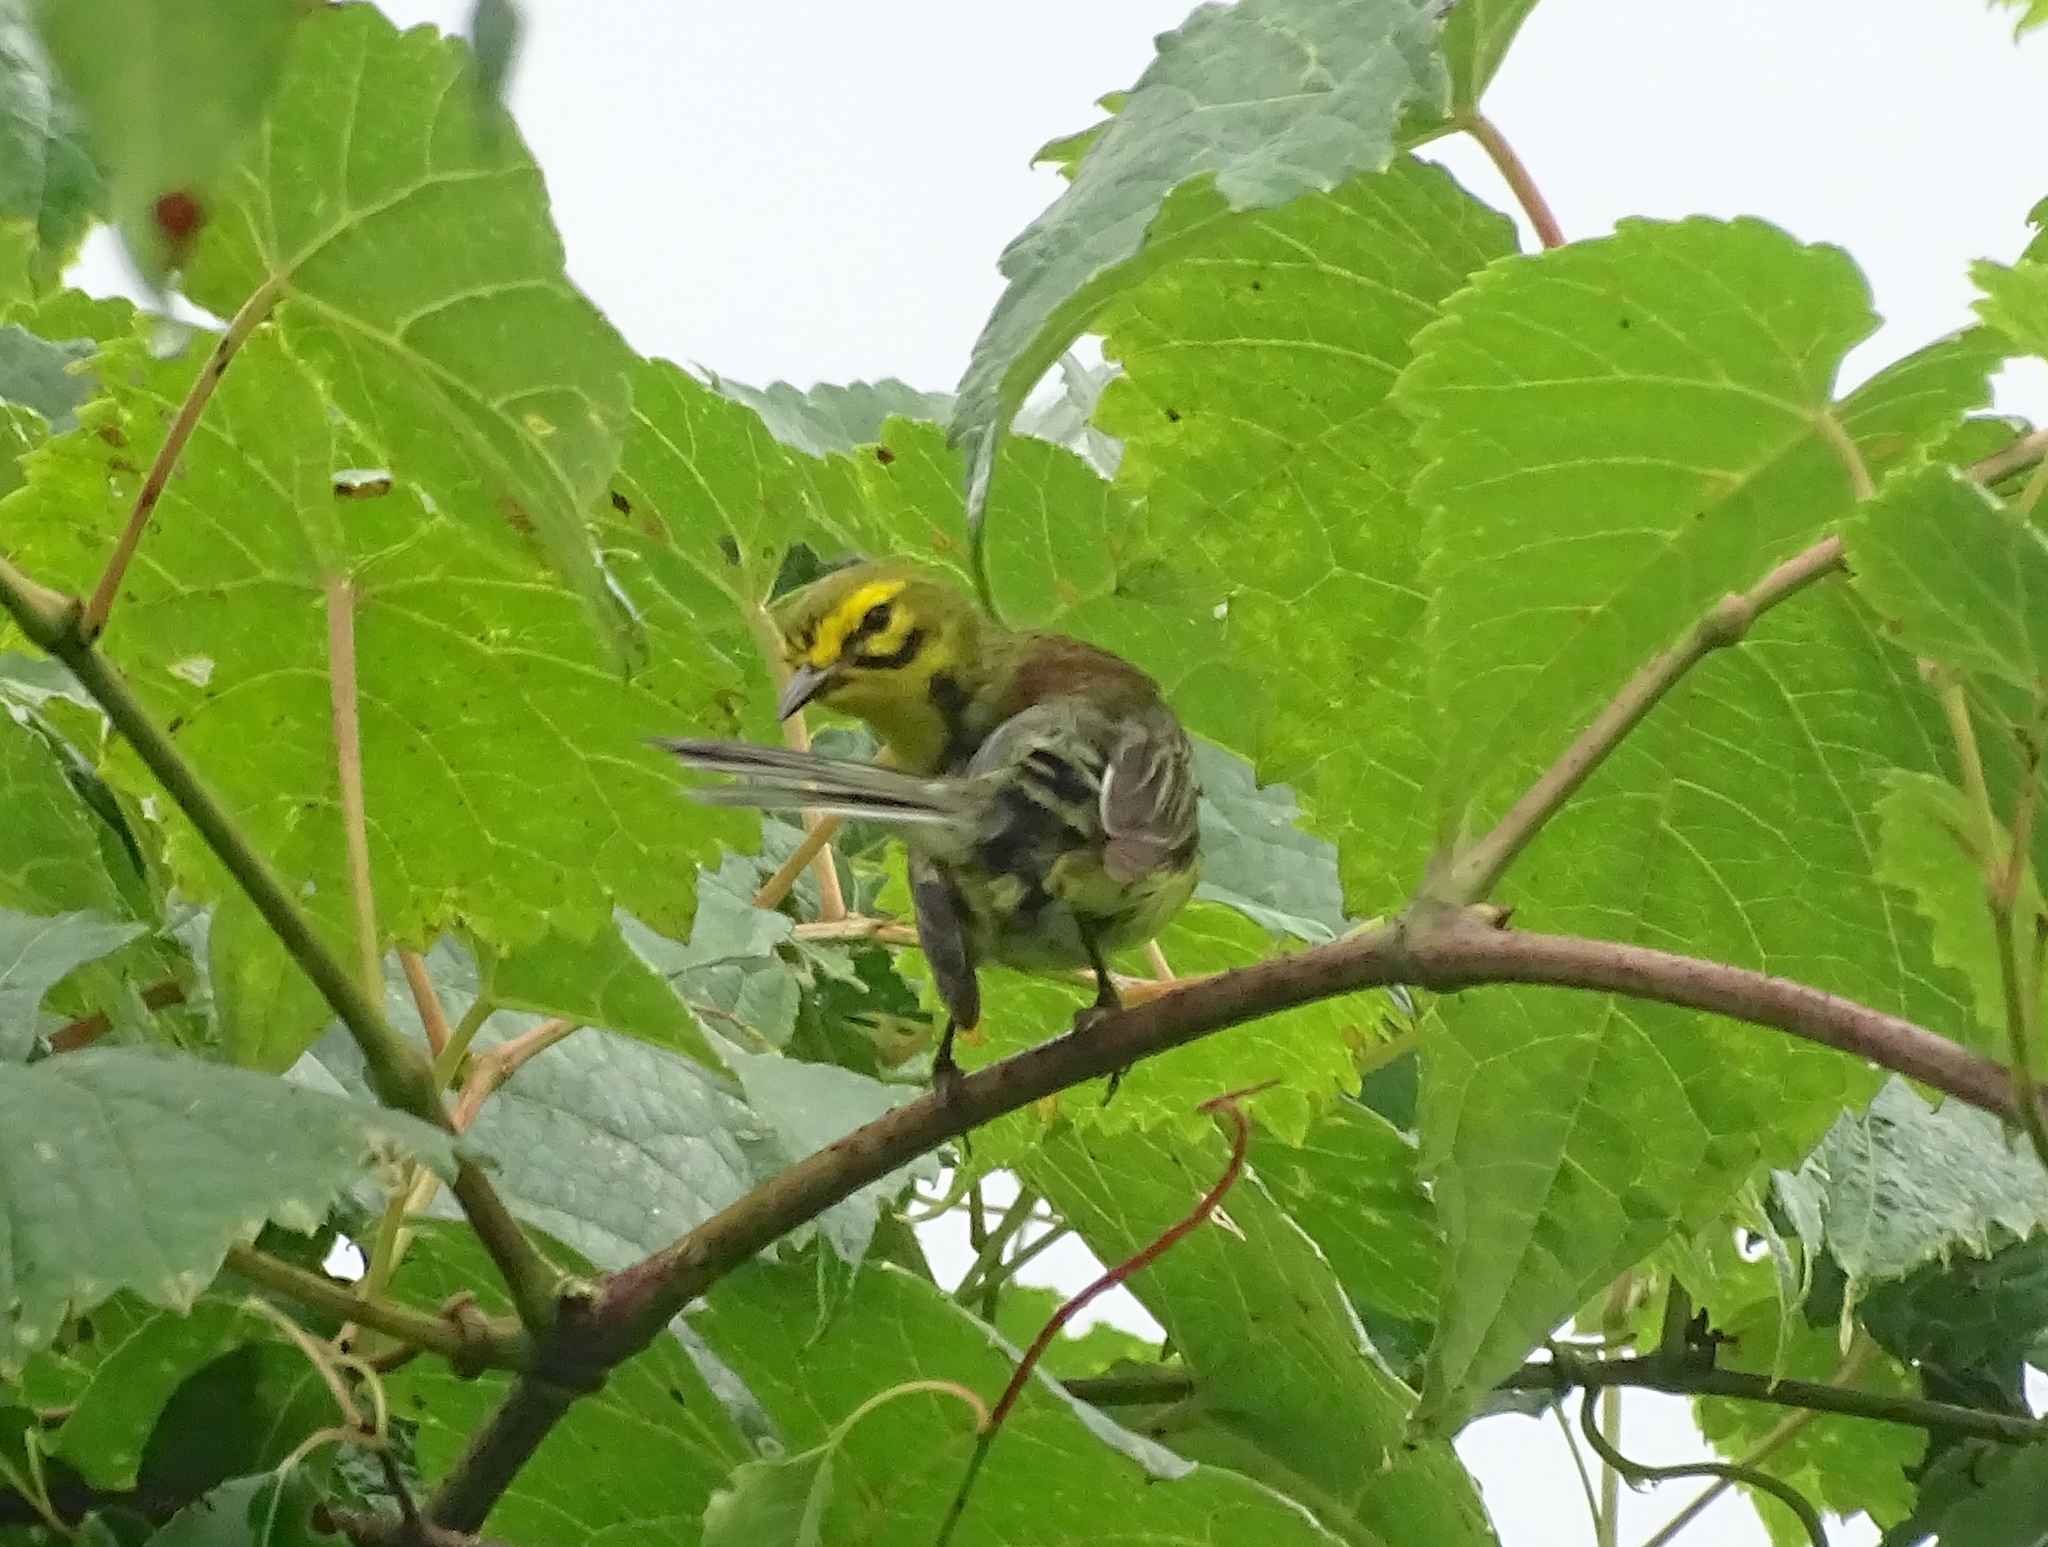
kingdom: Animalia
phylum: Chordata
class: Aves
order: Passeriformes
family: Parulidae
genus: Setophaga
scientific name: Setophaga discolor
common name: Prairie warbler
